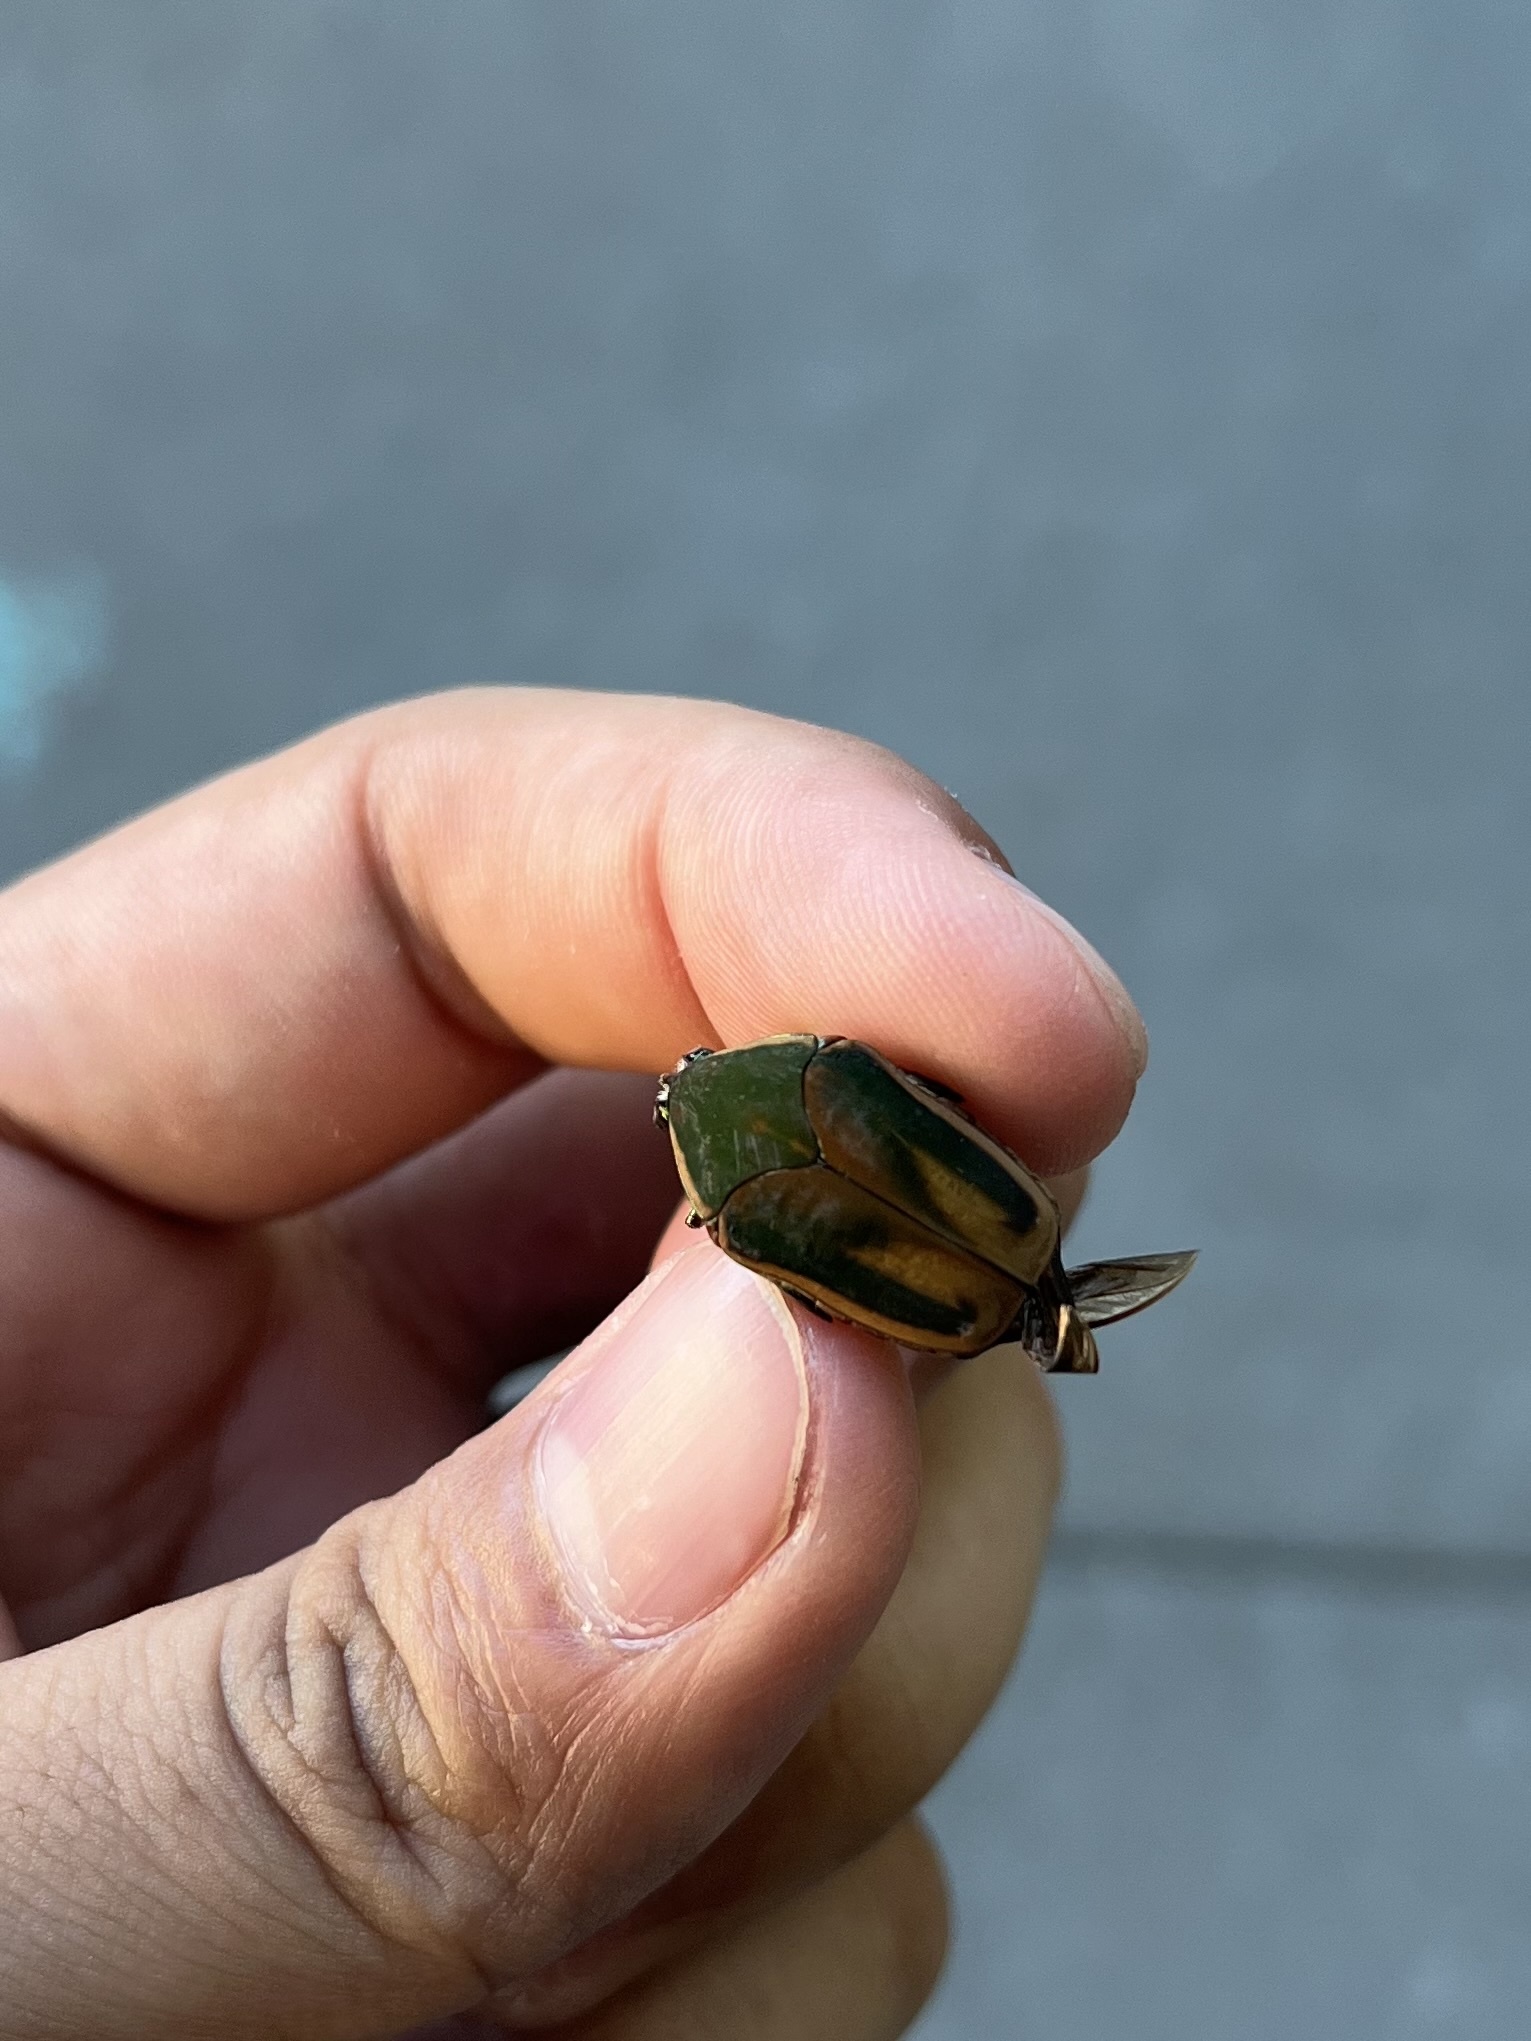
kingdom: Animalia
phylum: Arthropoda
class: Insecta
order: Coleoptera
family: Scarabaeidae
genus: Cotinis
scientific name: Cotinis nitida
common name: Common green june beetle
